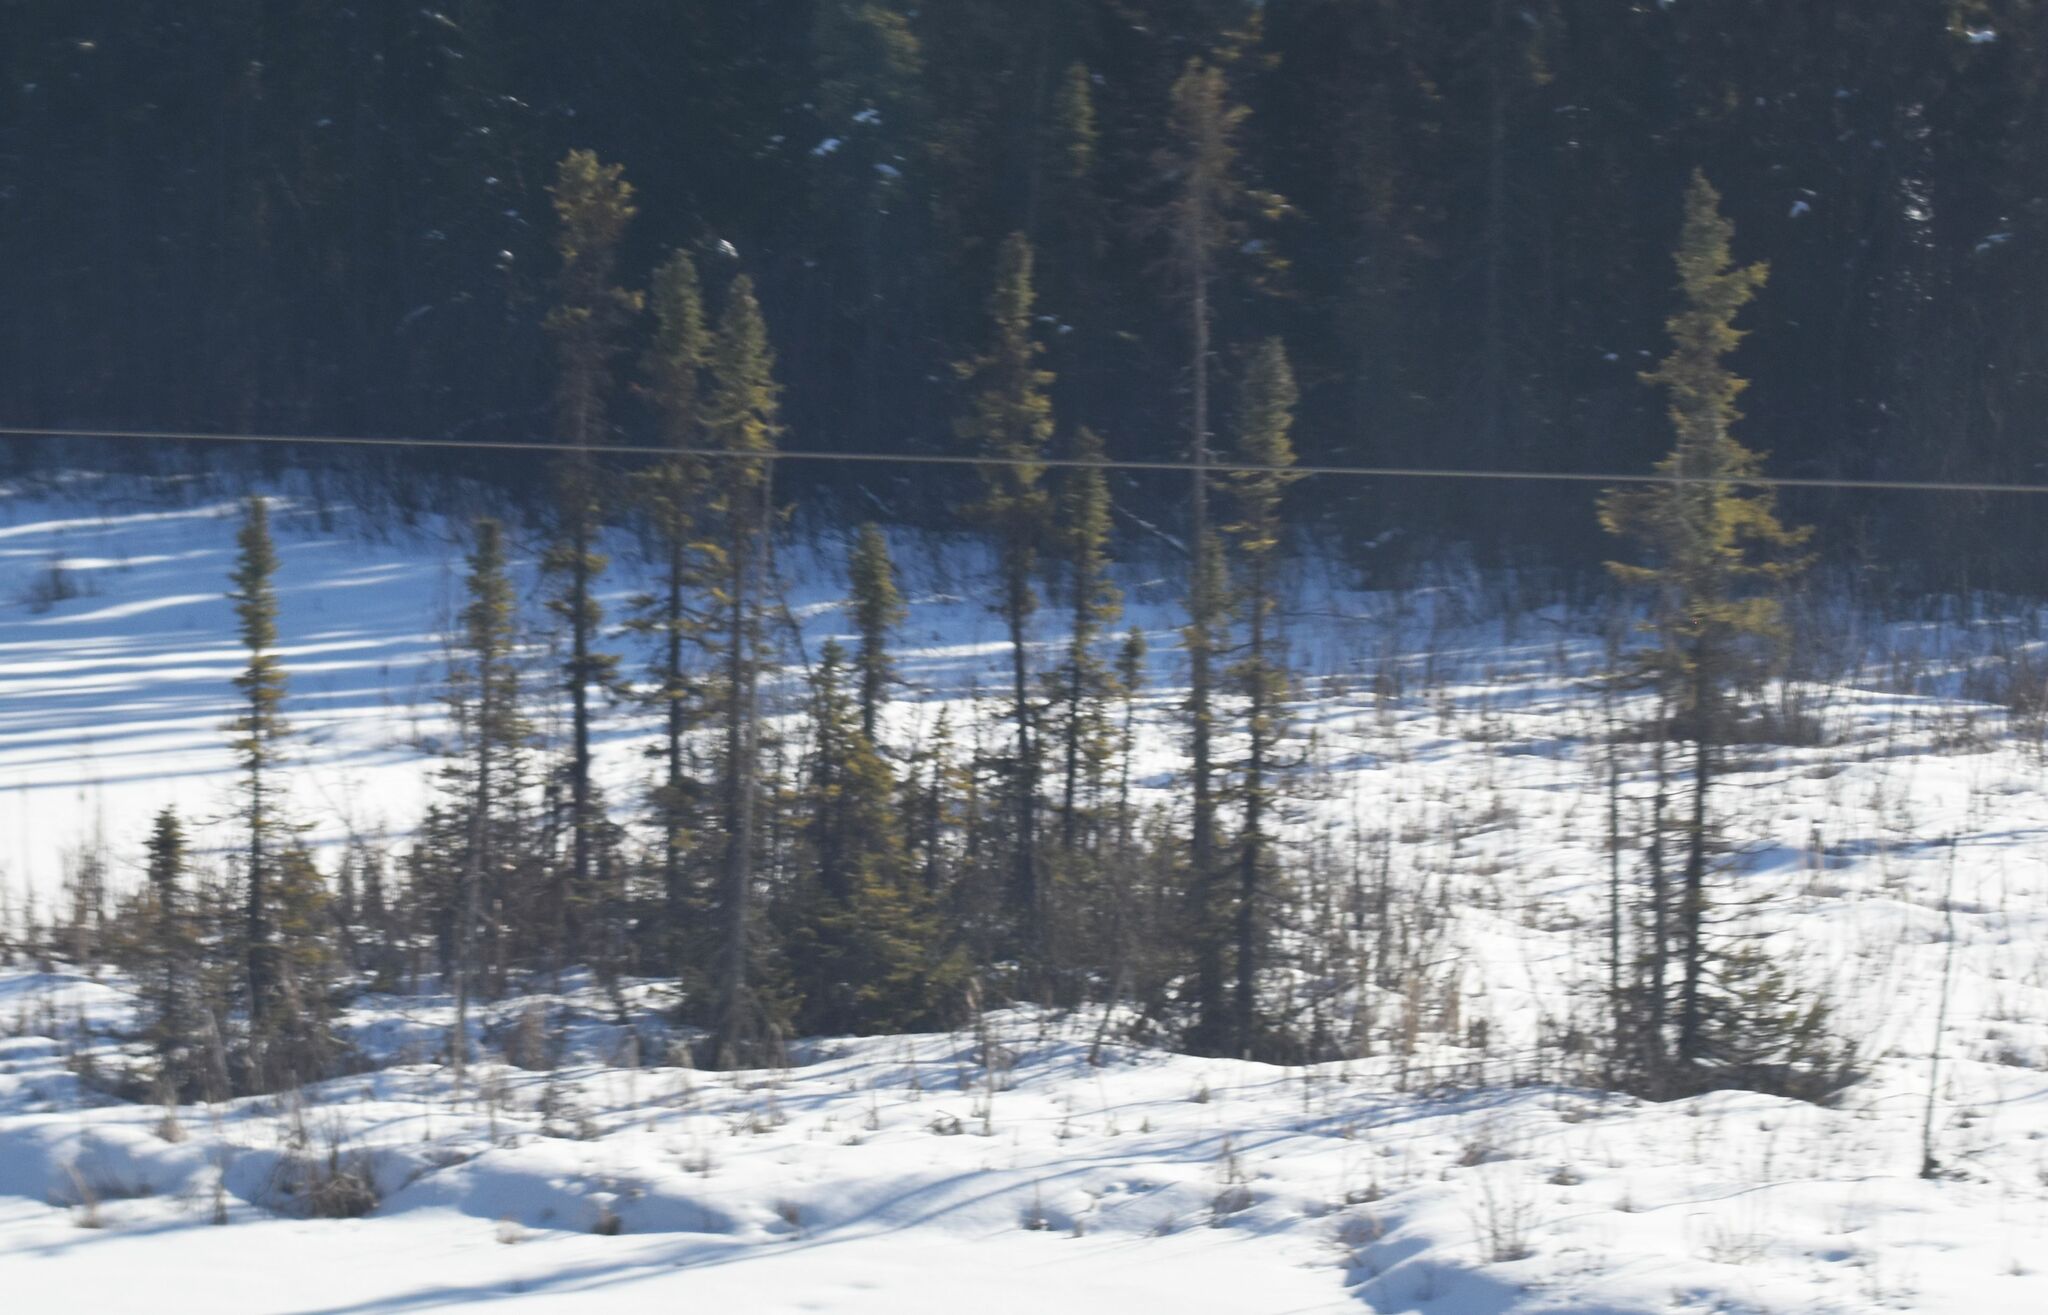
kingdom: Plantae
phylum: Tracheophyta
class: Pinopsida
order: Pinales
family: Pinaceae
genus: Picea
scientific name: Picea mariana
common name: Black spruce
